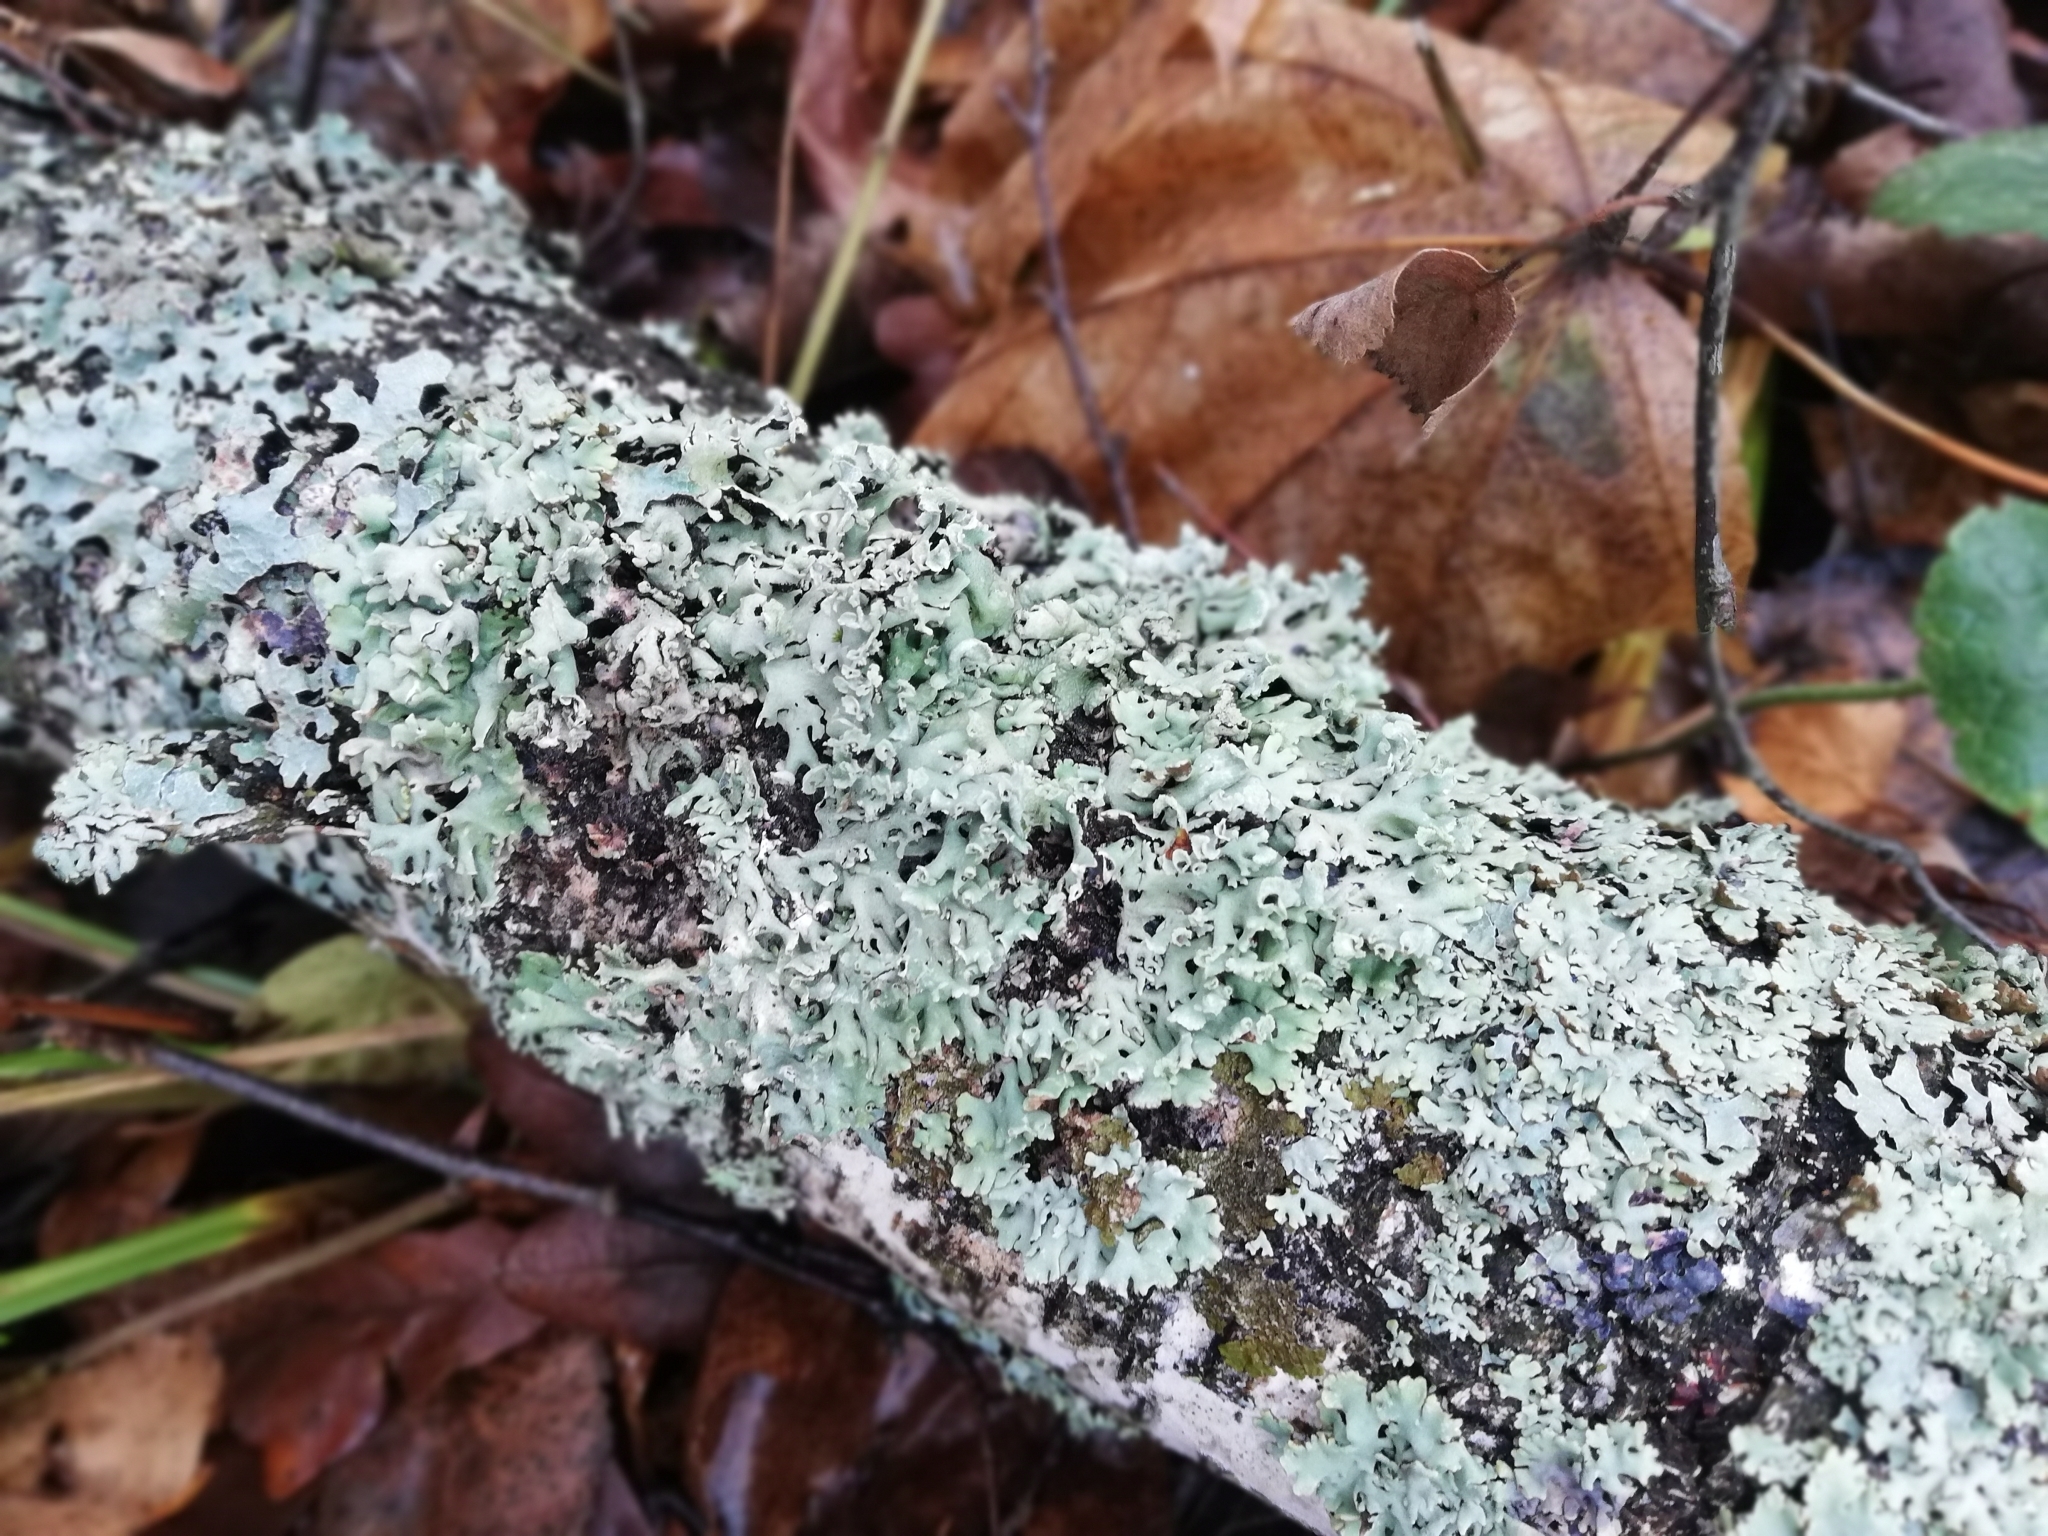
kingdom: Fungi
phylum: Ascomycota
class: Lecanoromycetes
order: Lecanorales
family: Parmeliaceae
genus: Hypogymnia
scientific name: Hypogymnia physodes
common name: Dark crottle
